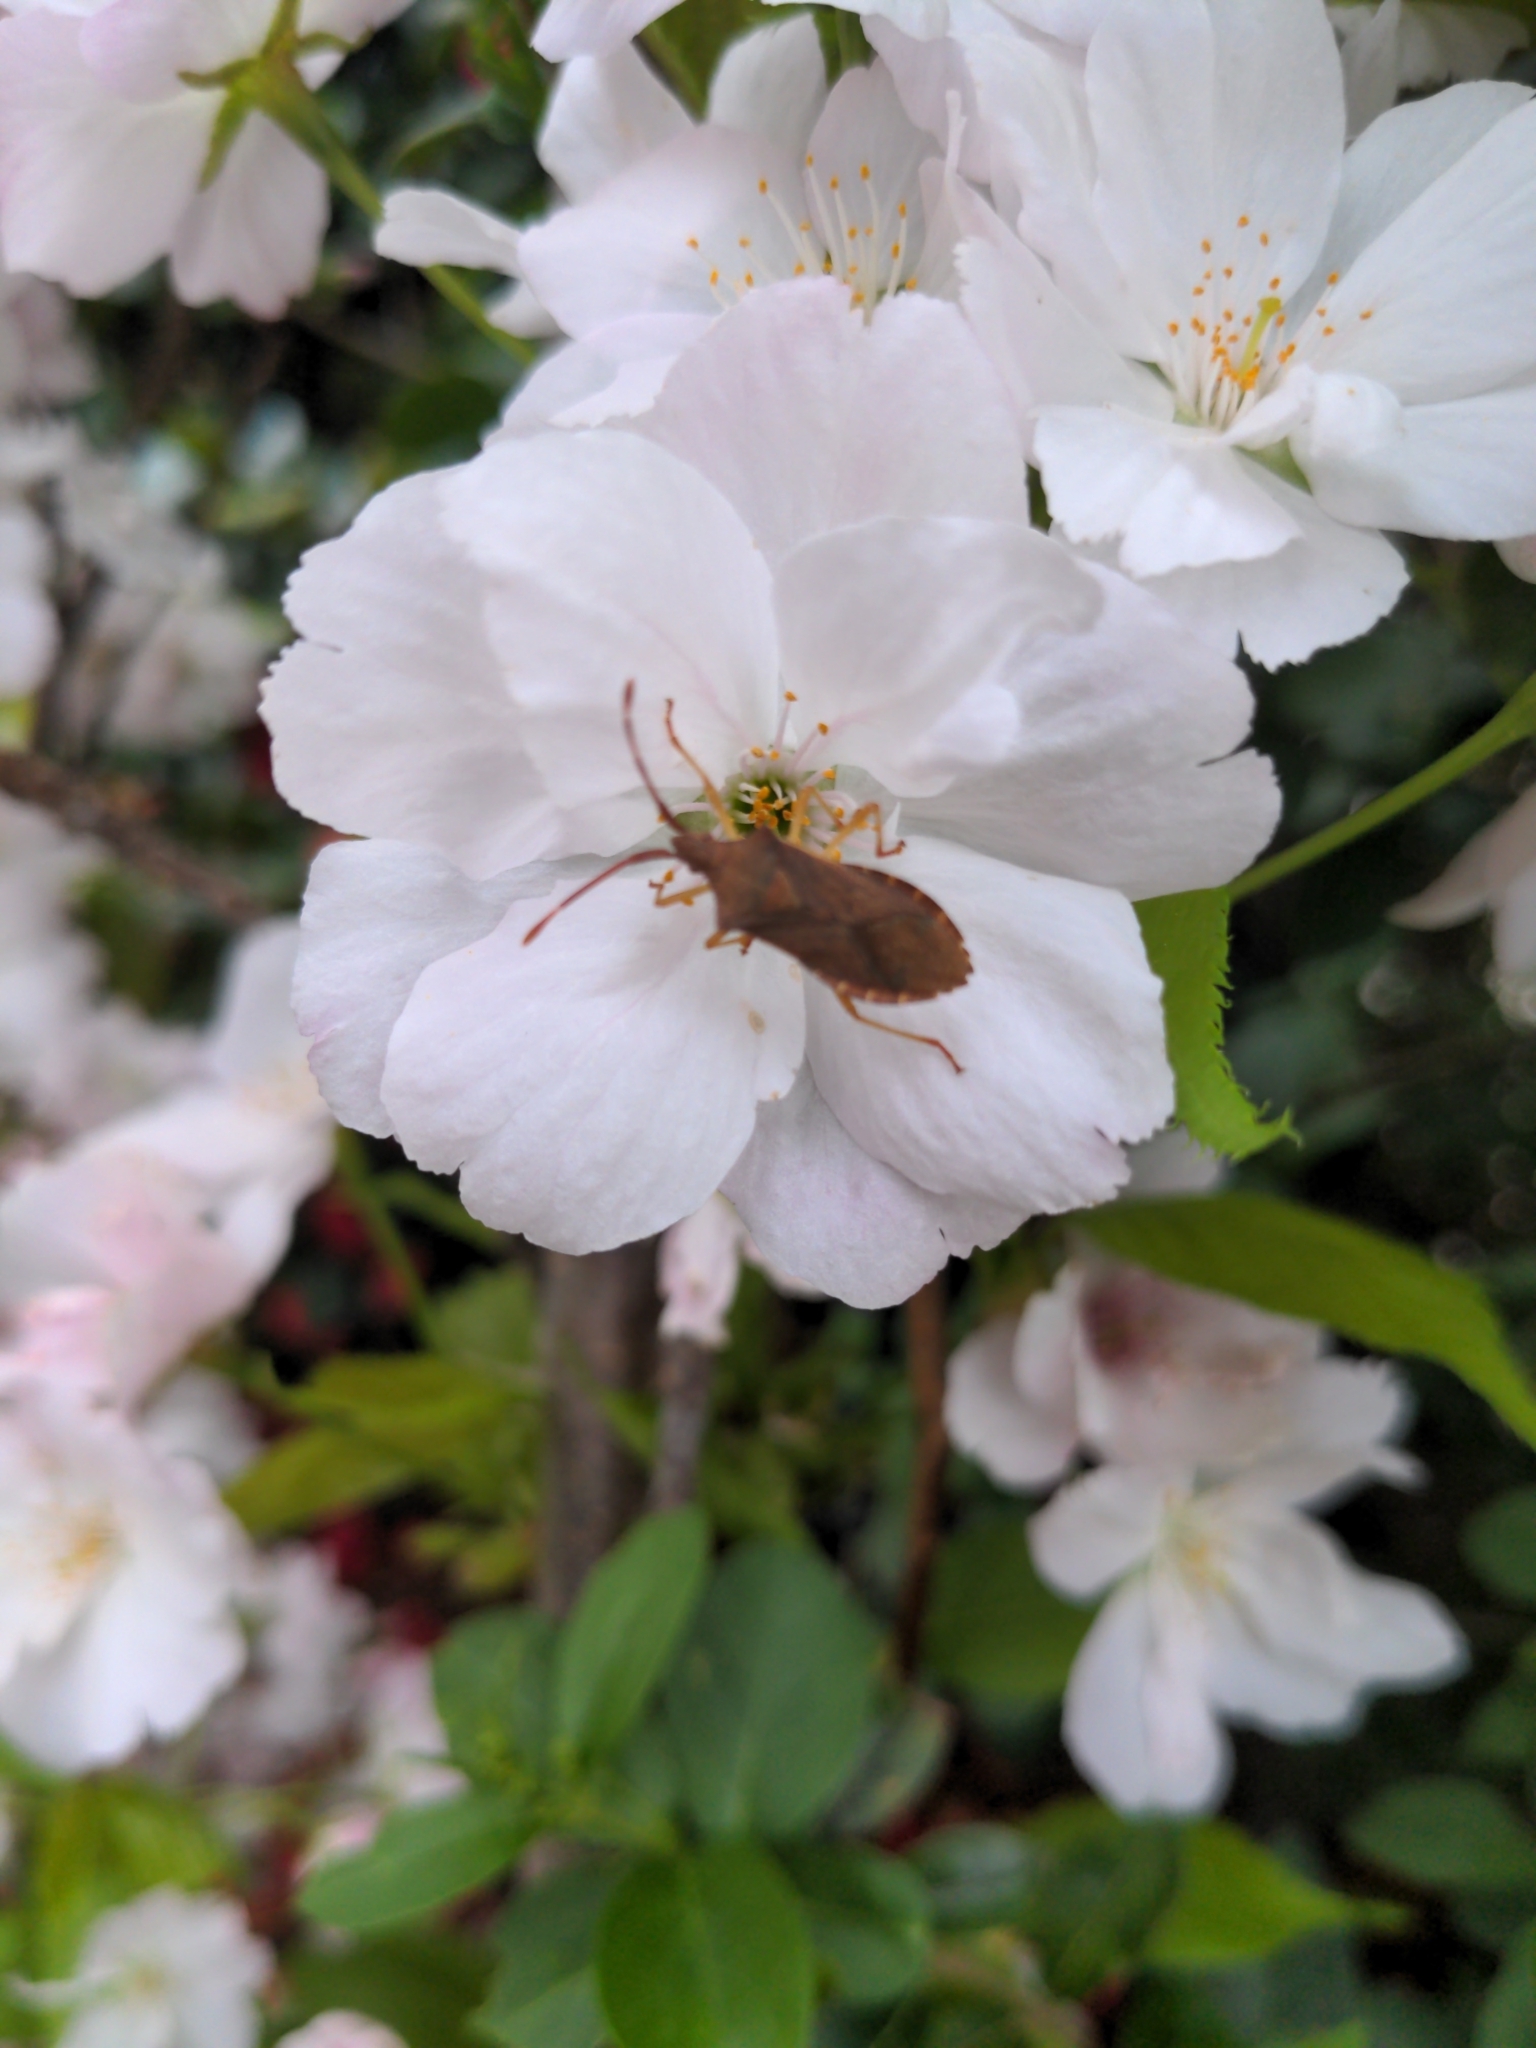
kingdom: Animalia
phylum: Arthropoda
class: Insecta
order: Hemiptera
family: Coreidae
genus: Gonocerus
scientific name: Gonocerus acuteangulatus
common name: Box bug
